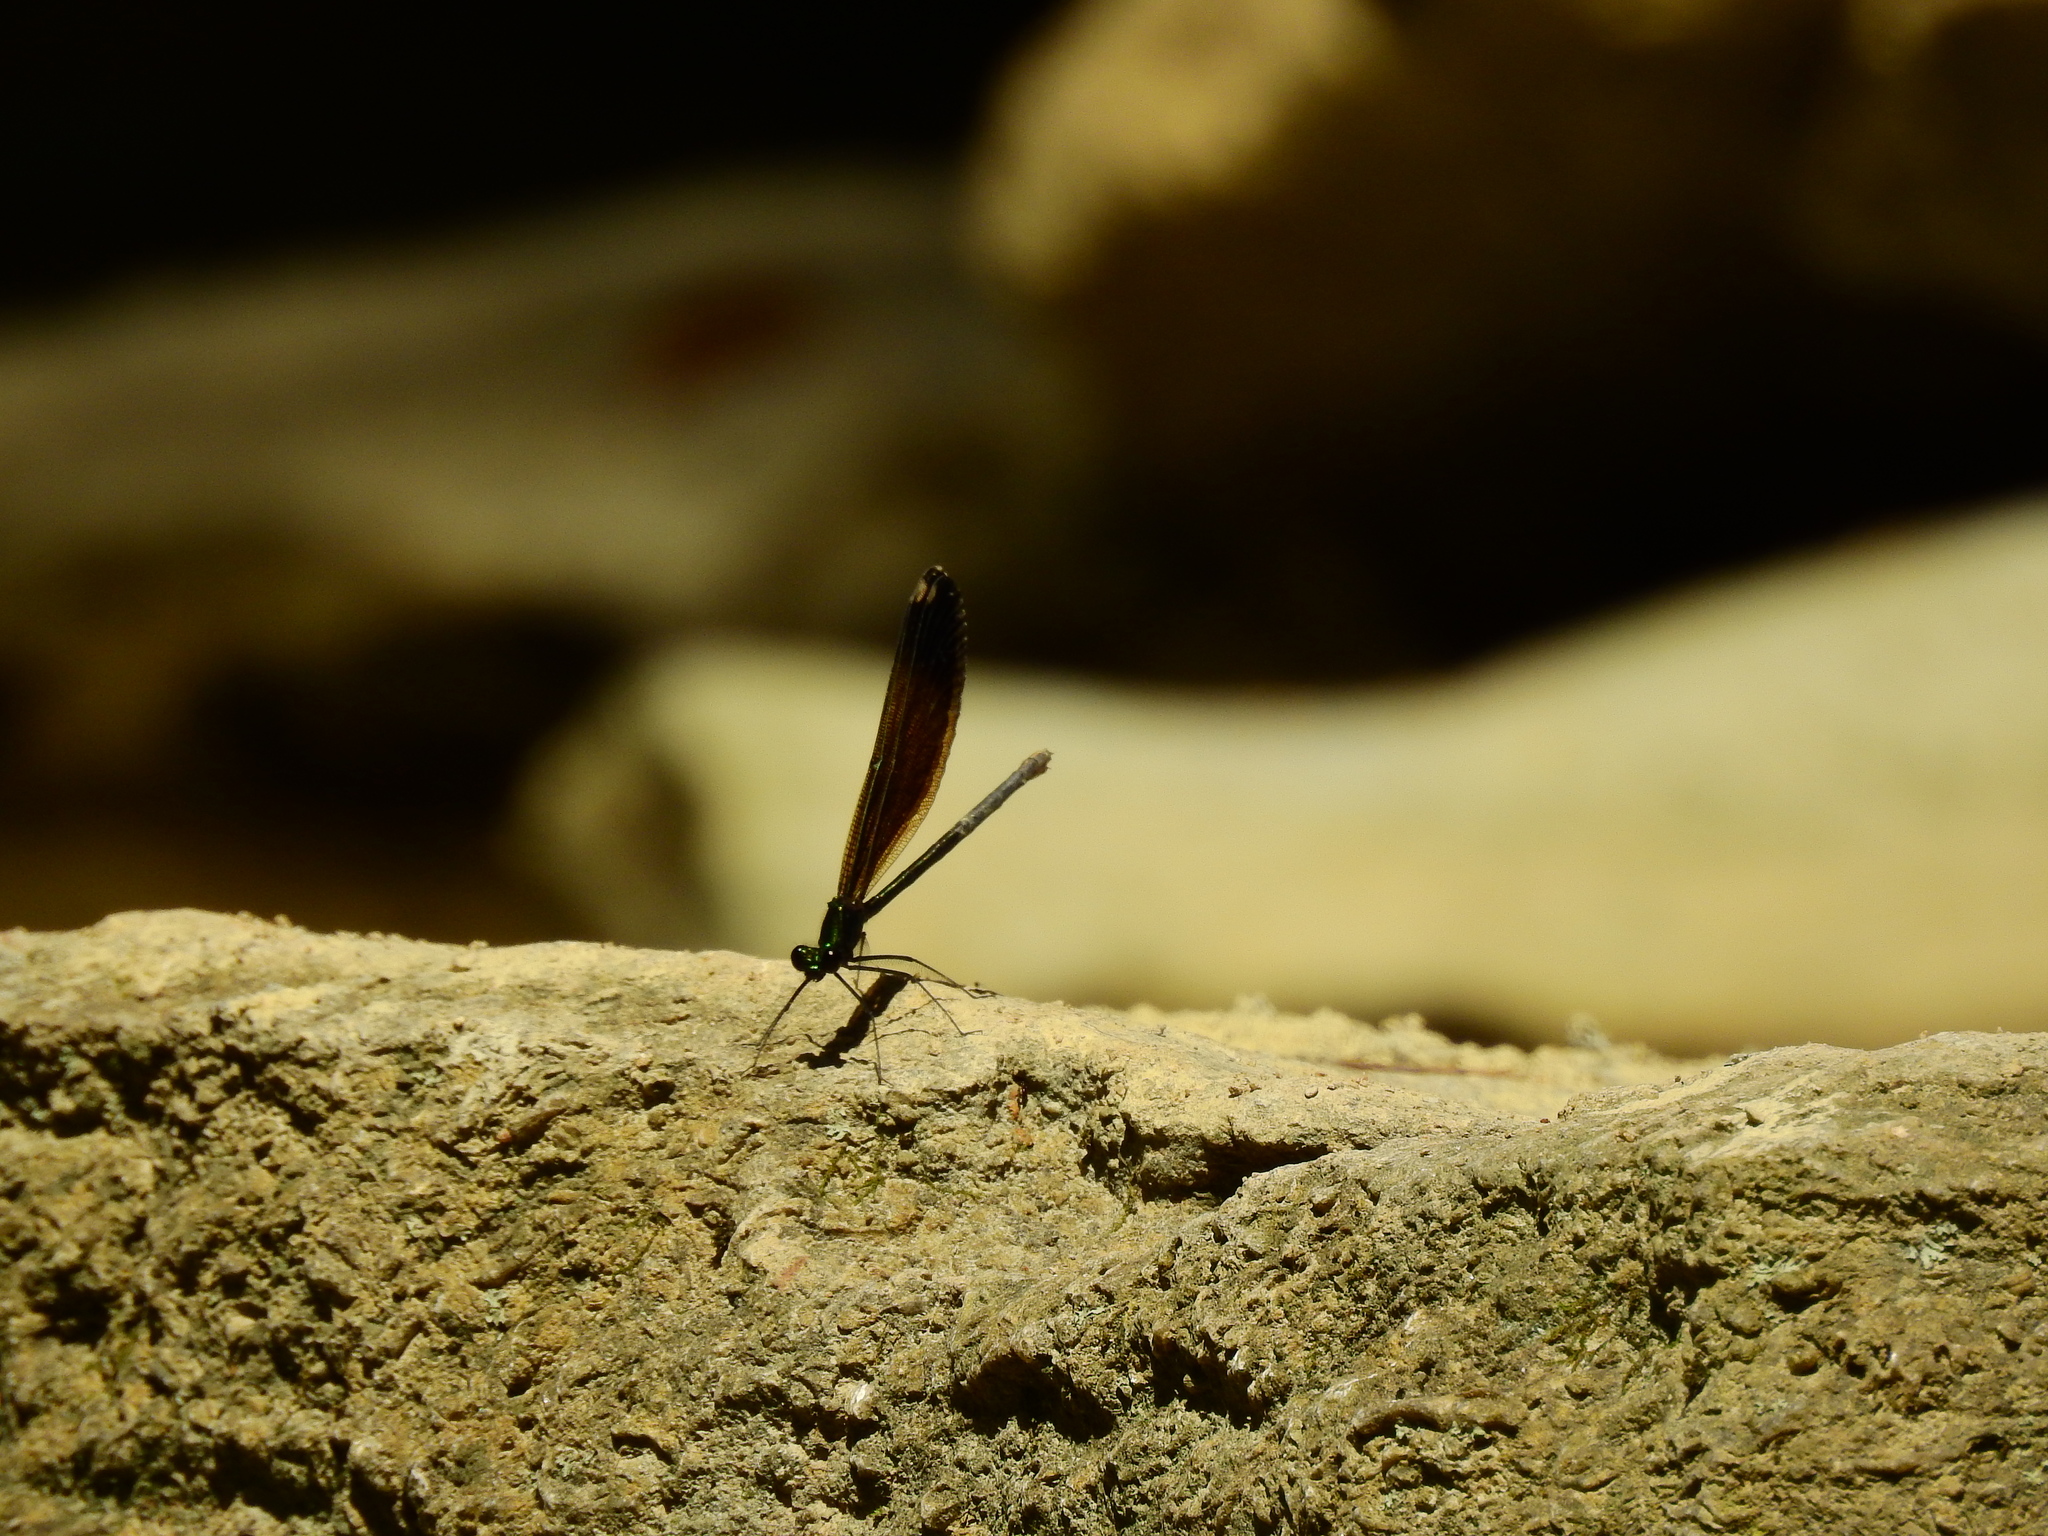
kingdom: Animalia
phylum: Arthropoda
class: Insecta
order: Odonata
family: Calopterygidae
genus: Calopteryx
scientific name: Calopteryx maculata
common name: Ebony jewelwing
